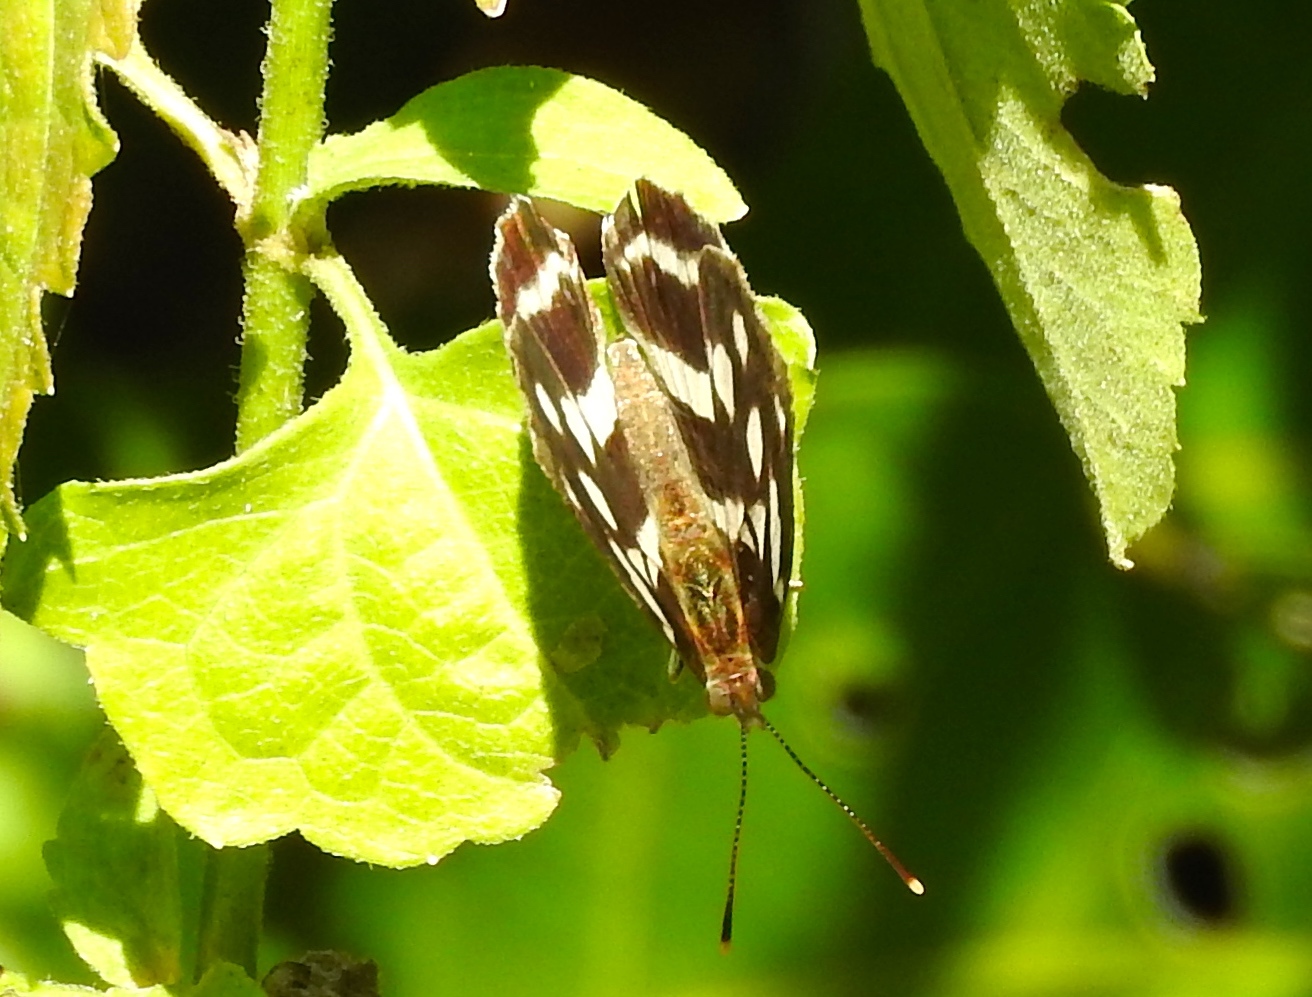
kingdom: Animalia
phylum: Arthropoda
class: Insecta
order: Lepidoptera
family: Nymphalidae
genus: Dynamine
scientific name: Dynamine mylitta
